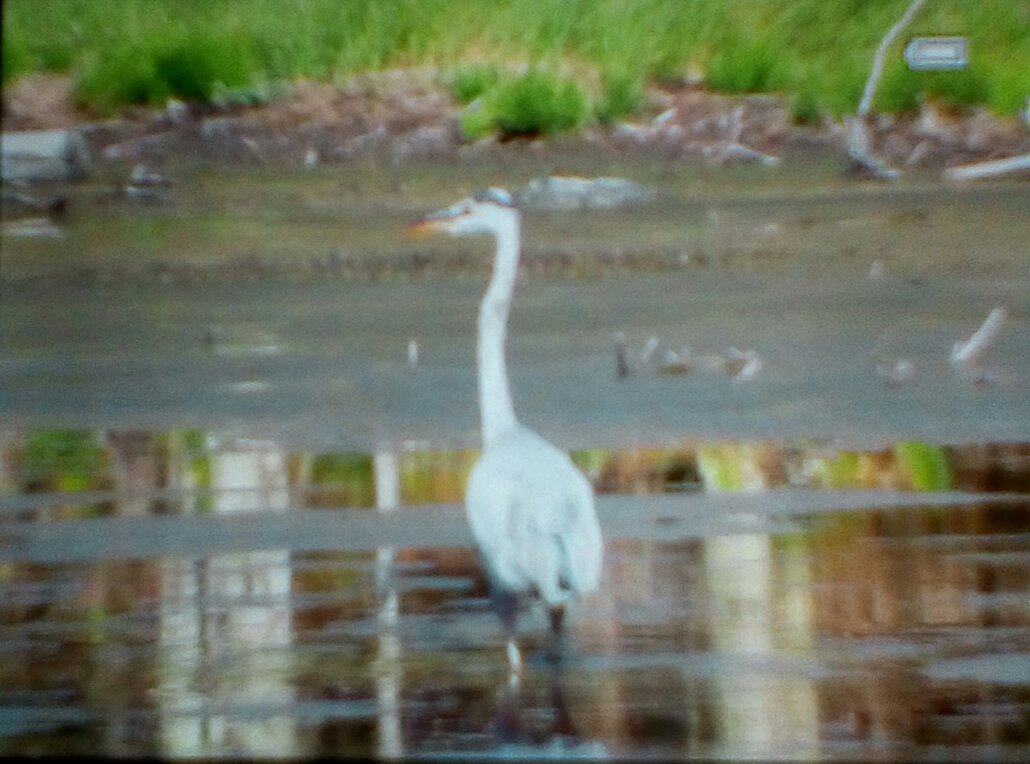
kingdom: Animalia
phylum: Chordata
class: Aves
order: Pelecaniformes
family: Ardeidae
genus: Ardea
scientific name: Ardea herodias
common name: Great blue heron
